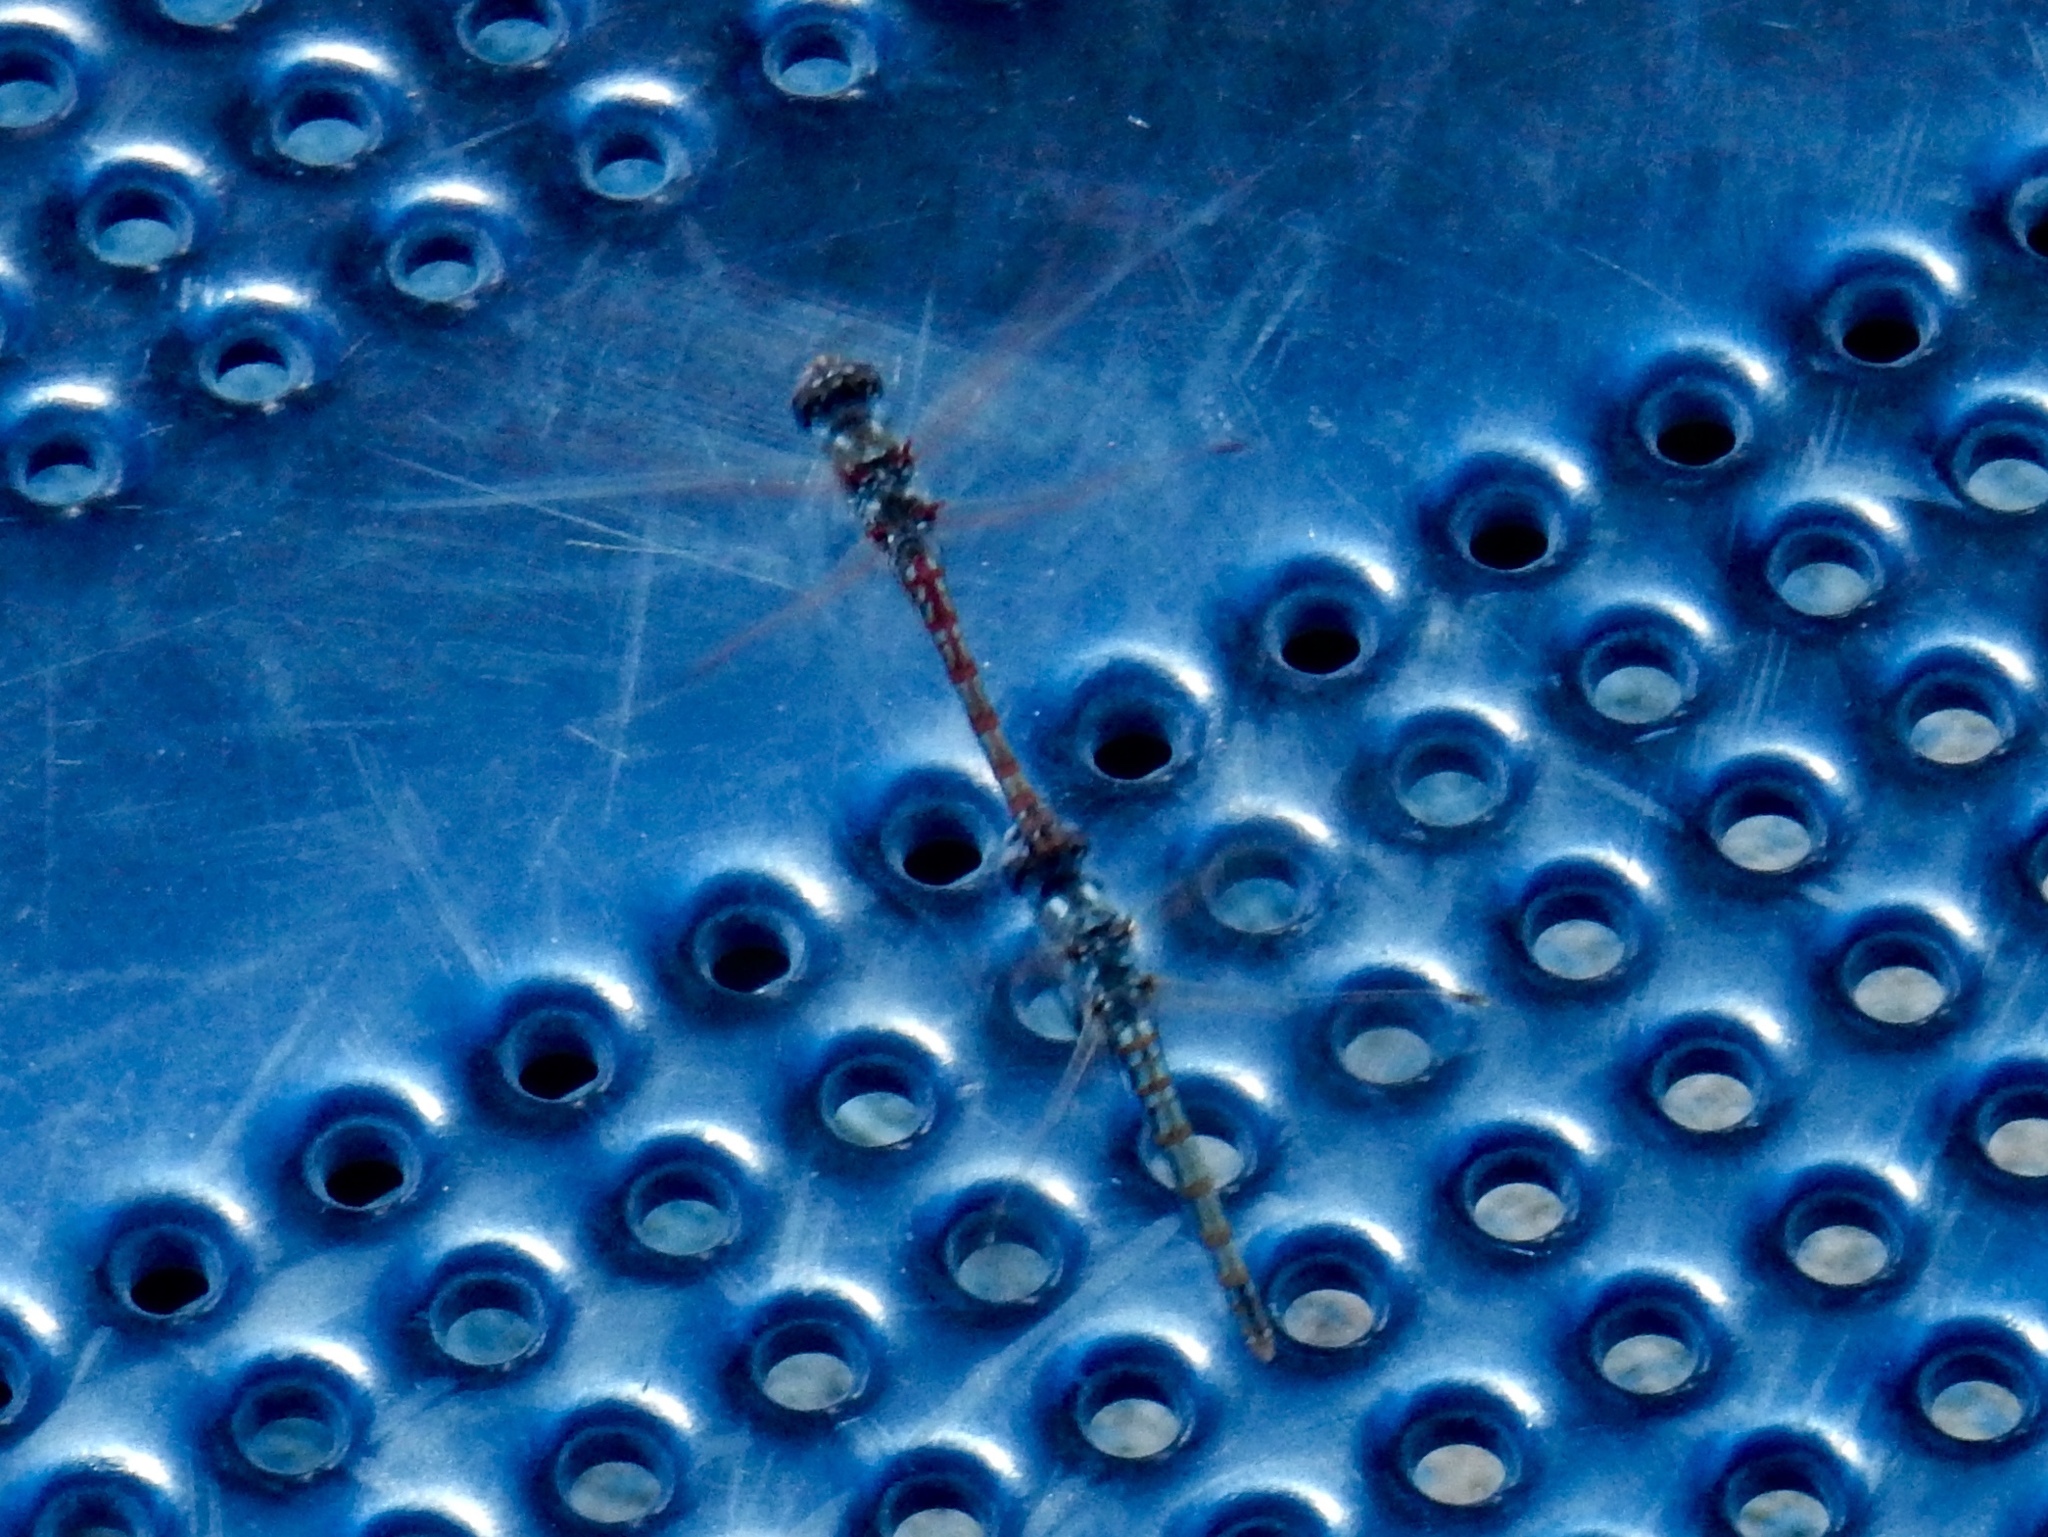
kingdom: Animalia
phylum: Arthropoda
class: Insecta
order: Odonata
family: Libellulidae
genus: Sympetrum
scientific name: Sympetrum corruptum
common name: Variegated meadowhawk
